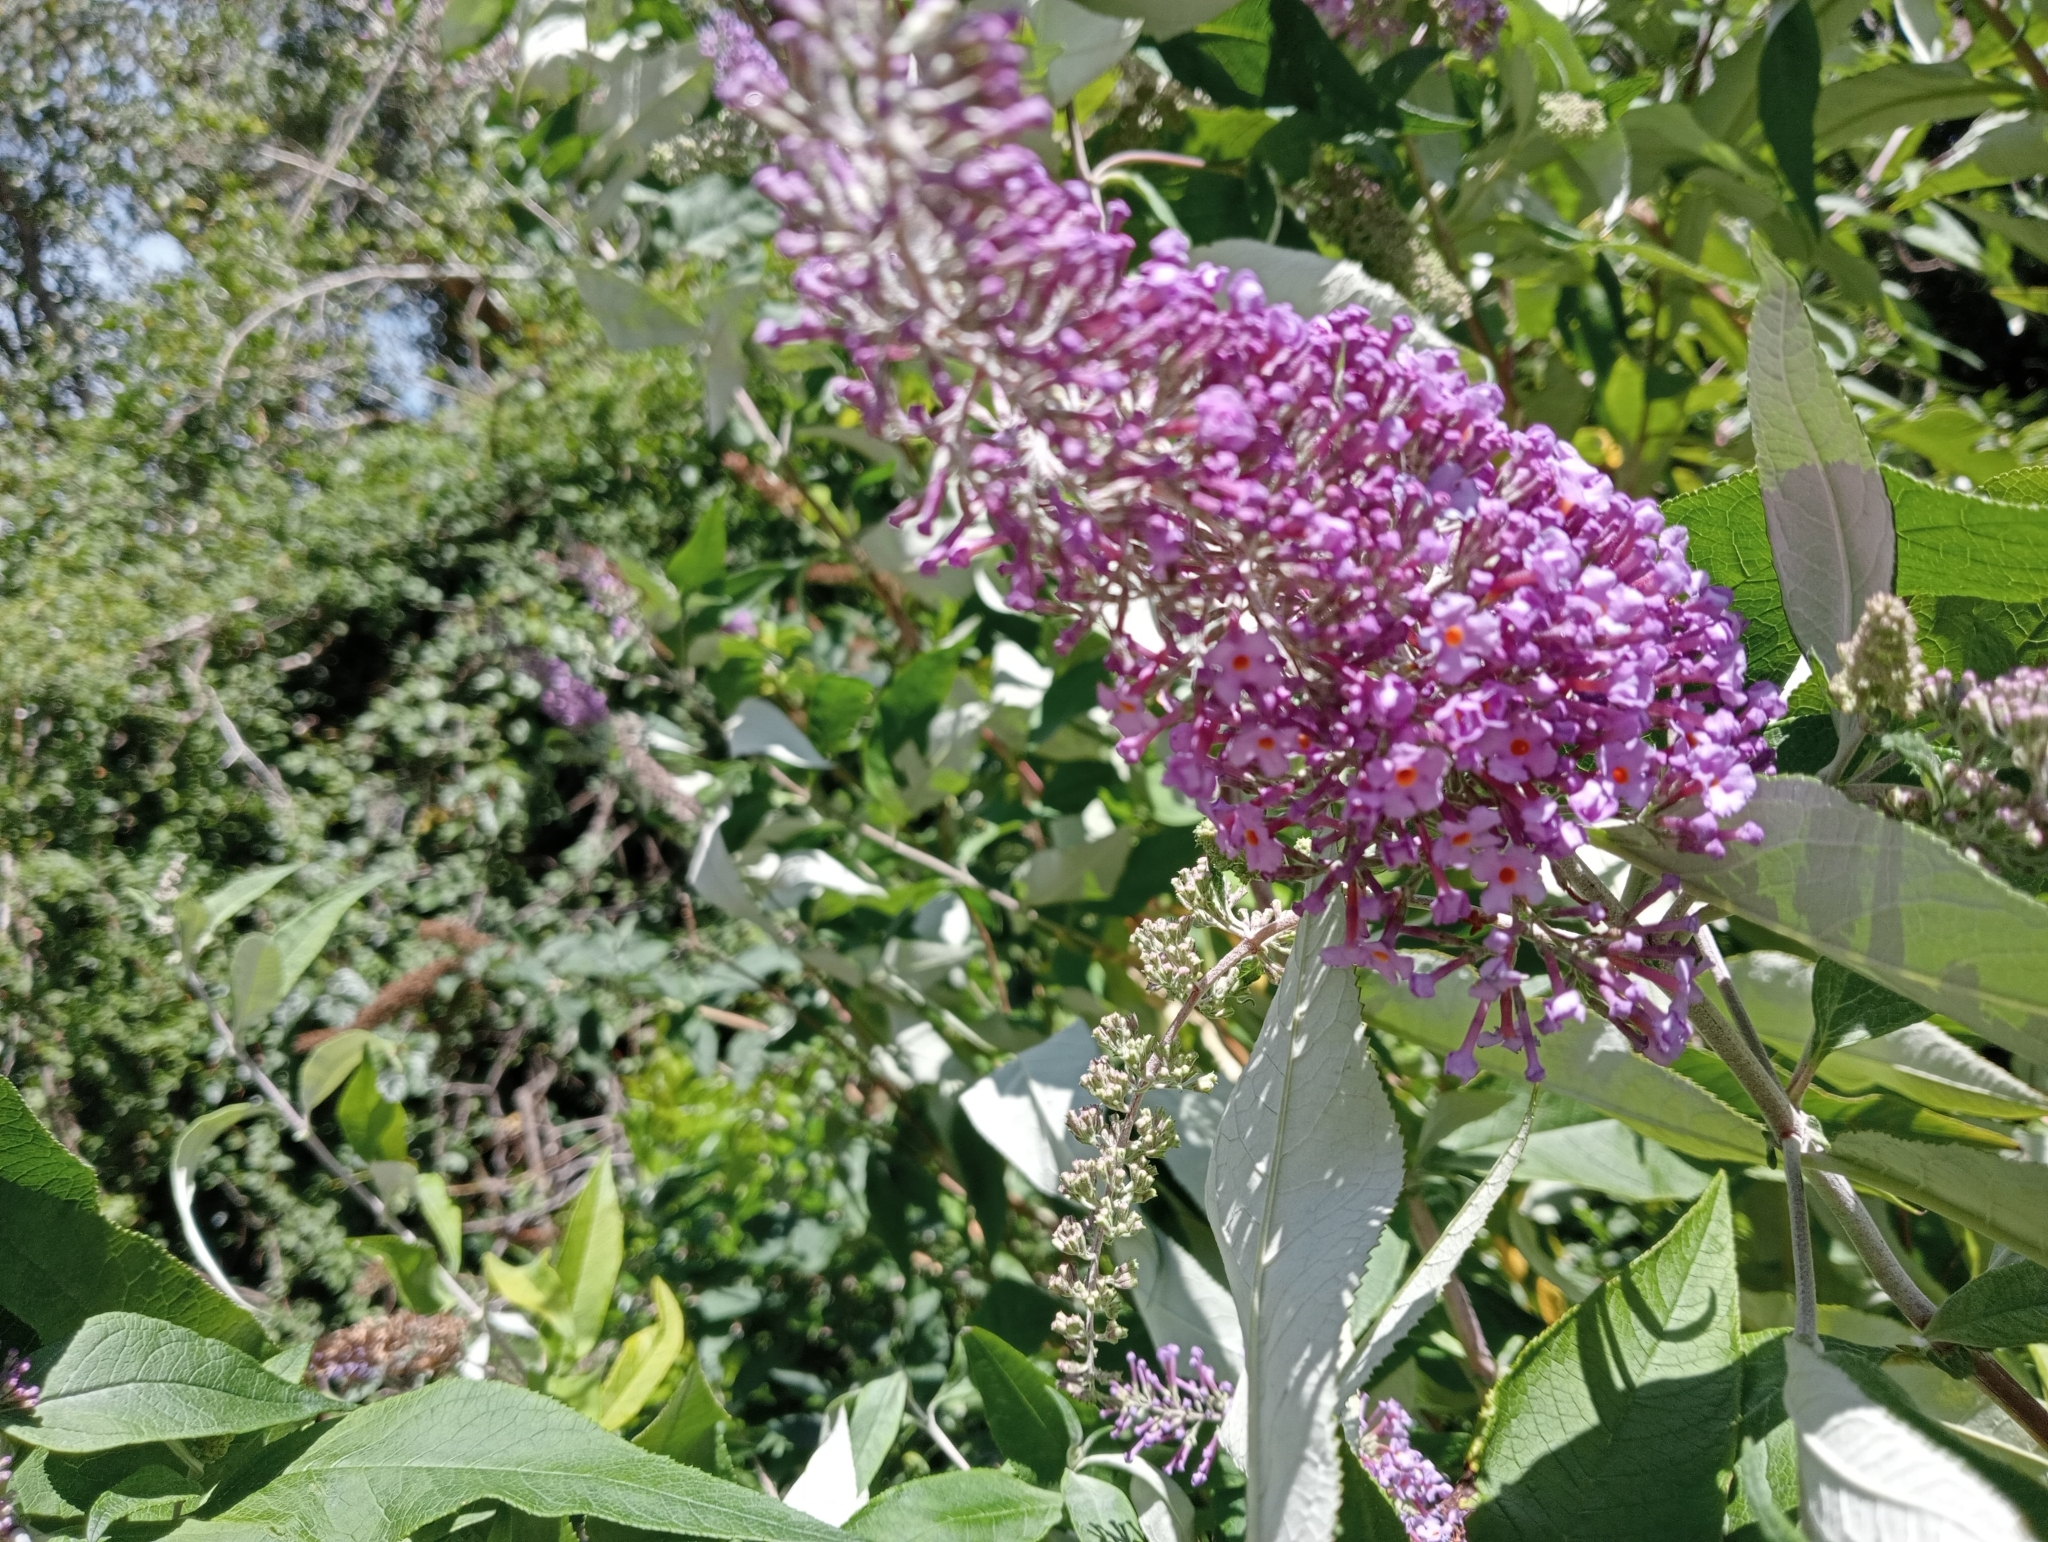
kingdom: Plantae
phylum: Tracheophyta
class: Magnoliopsida
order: Lamiales
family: Scrophulariaceae
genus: Buddleja
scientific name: Buddleja davidii
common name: Butterfly-bush
